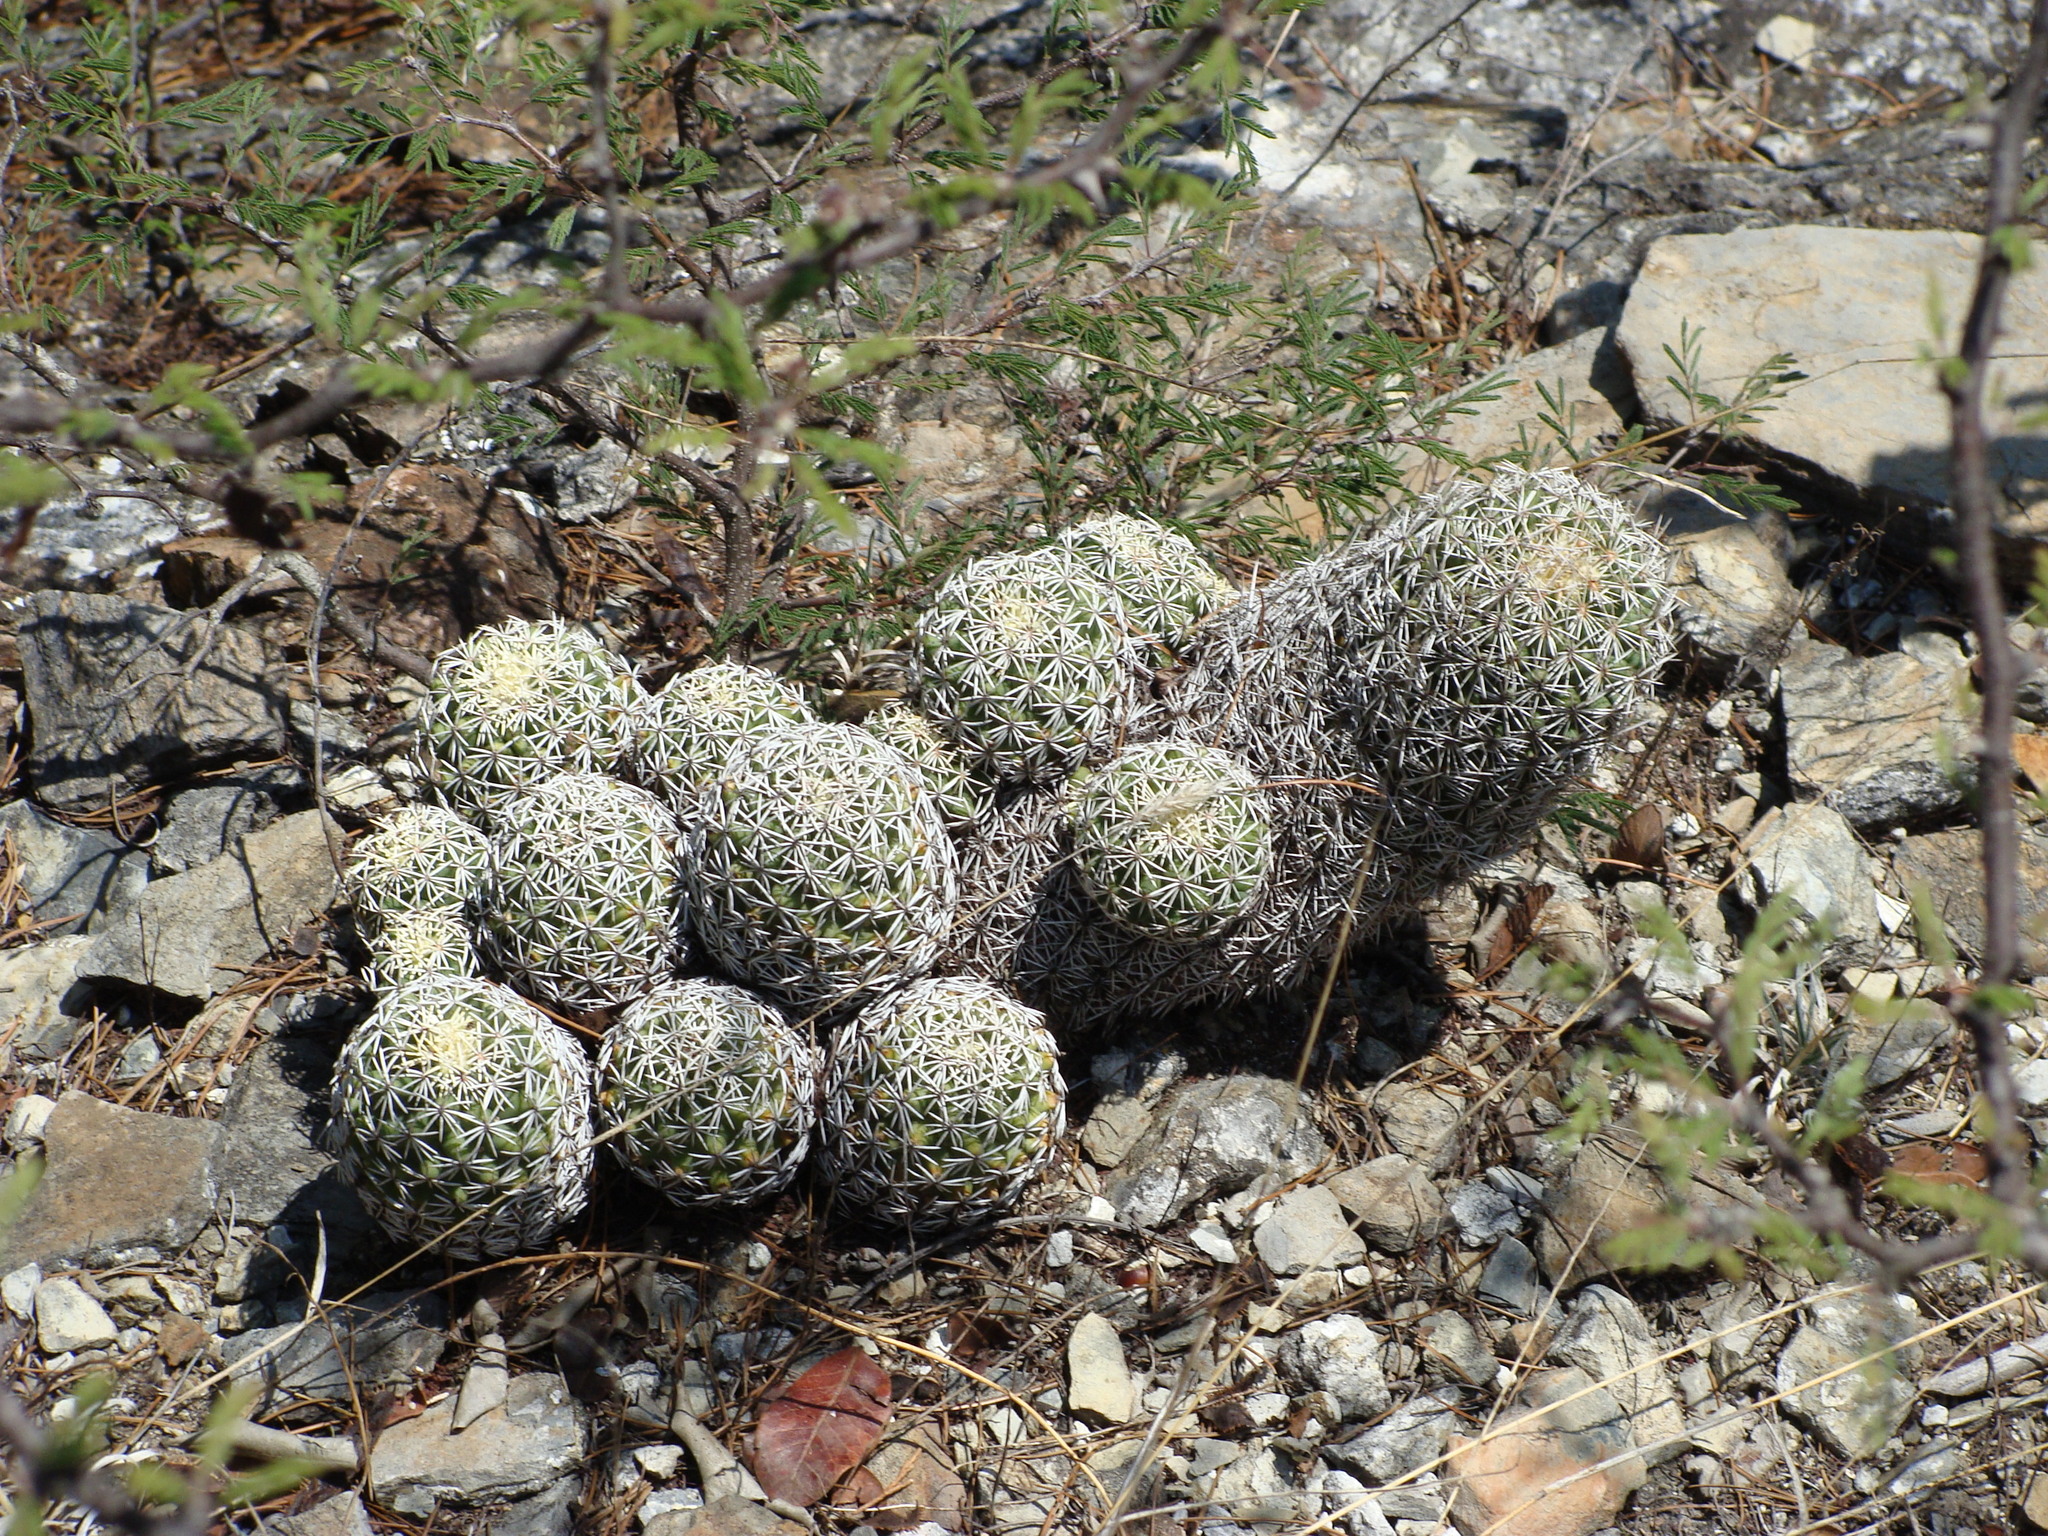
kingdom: Plantae
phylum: Tracheophyta
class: Magnoliopsida
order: Caryophyllales
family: Cactaceae
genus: Coryphantha
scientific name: Coryphantha erecta
